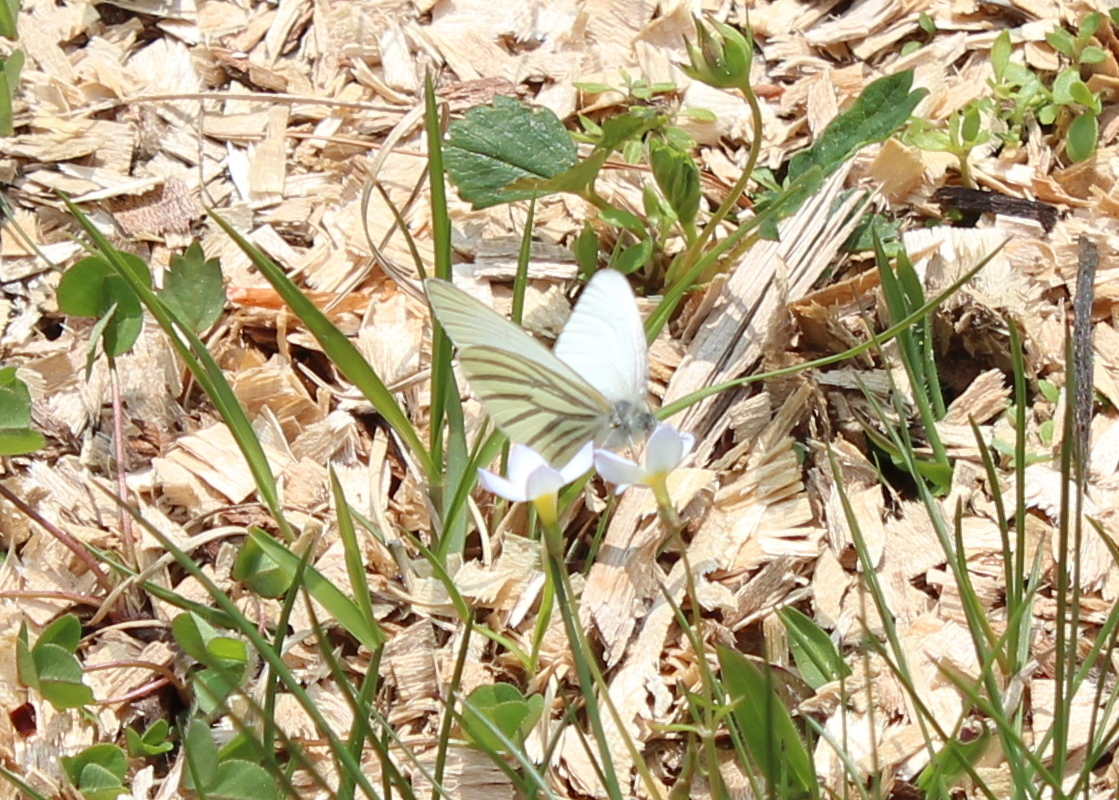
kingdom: Animalia
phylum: Arthropoda
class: Insecta
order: Lepidoptera
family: Pieridae
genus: Pieris
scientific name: Pieris oleracea
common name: Mustard white
